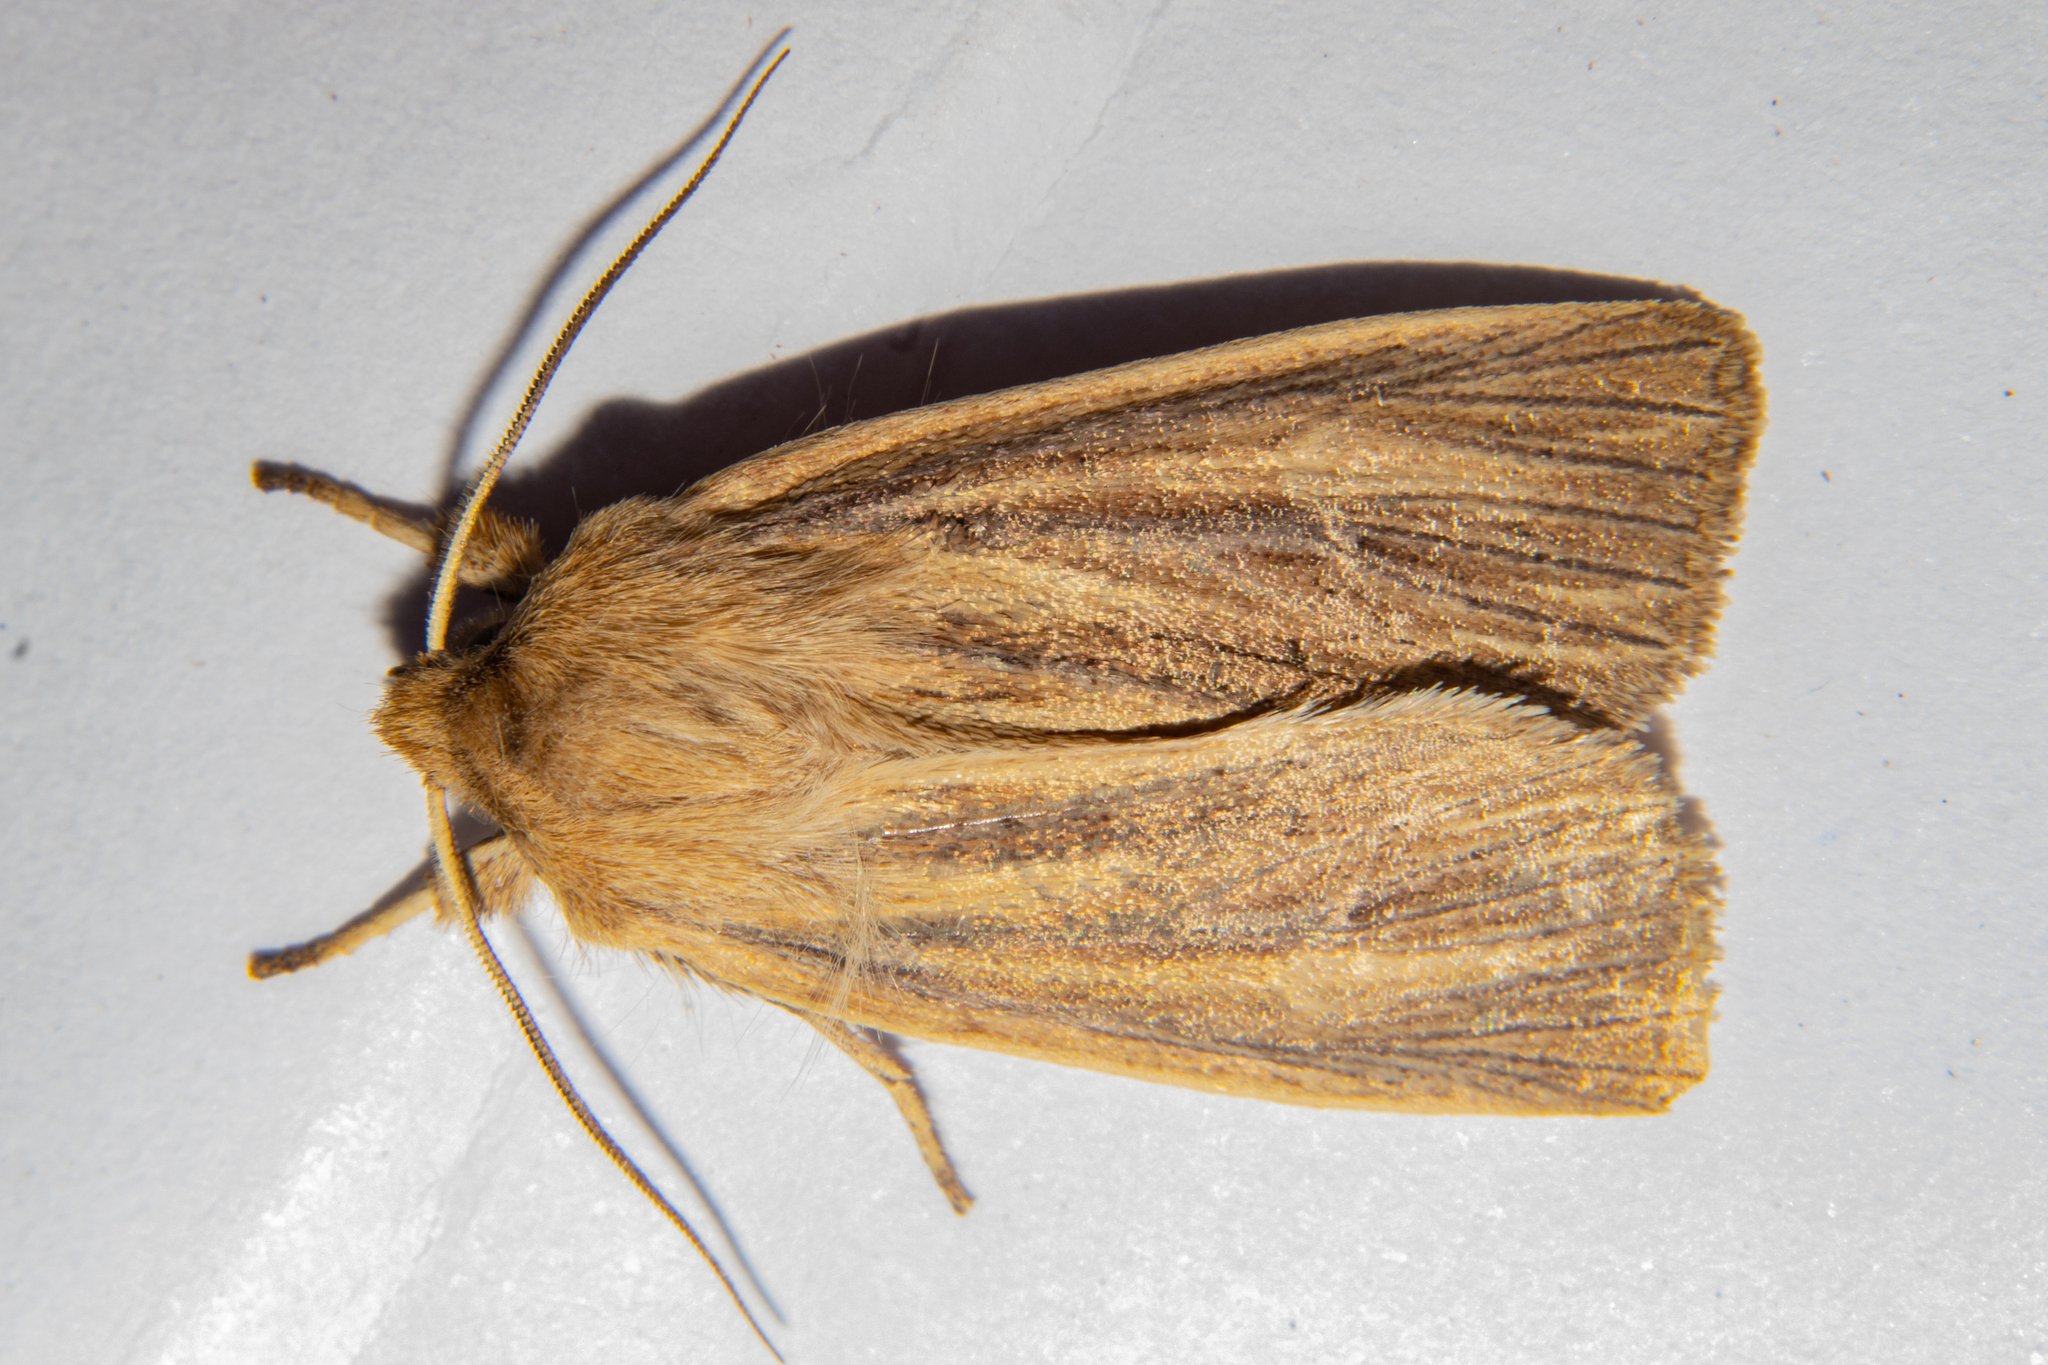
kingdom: Animalia
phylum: Arthropoda
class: Insecta
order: Lepidoptera
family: Noctuidae
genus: Ichneutica
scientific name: Ichneutica arotis
